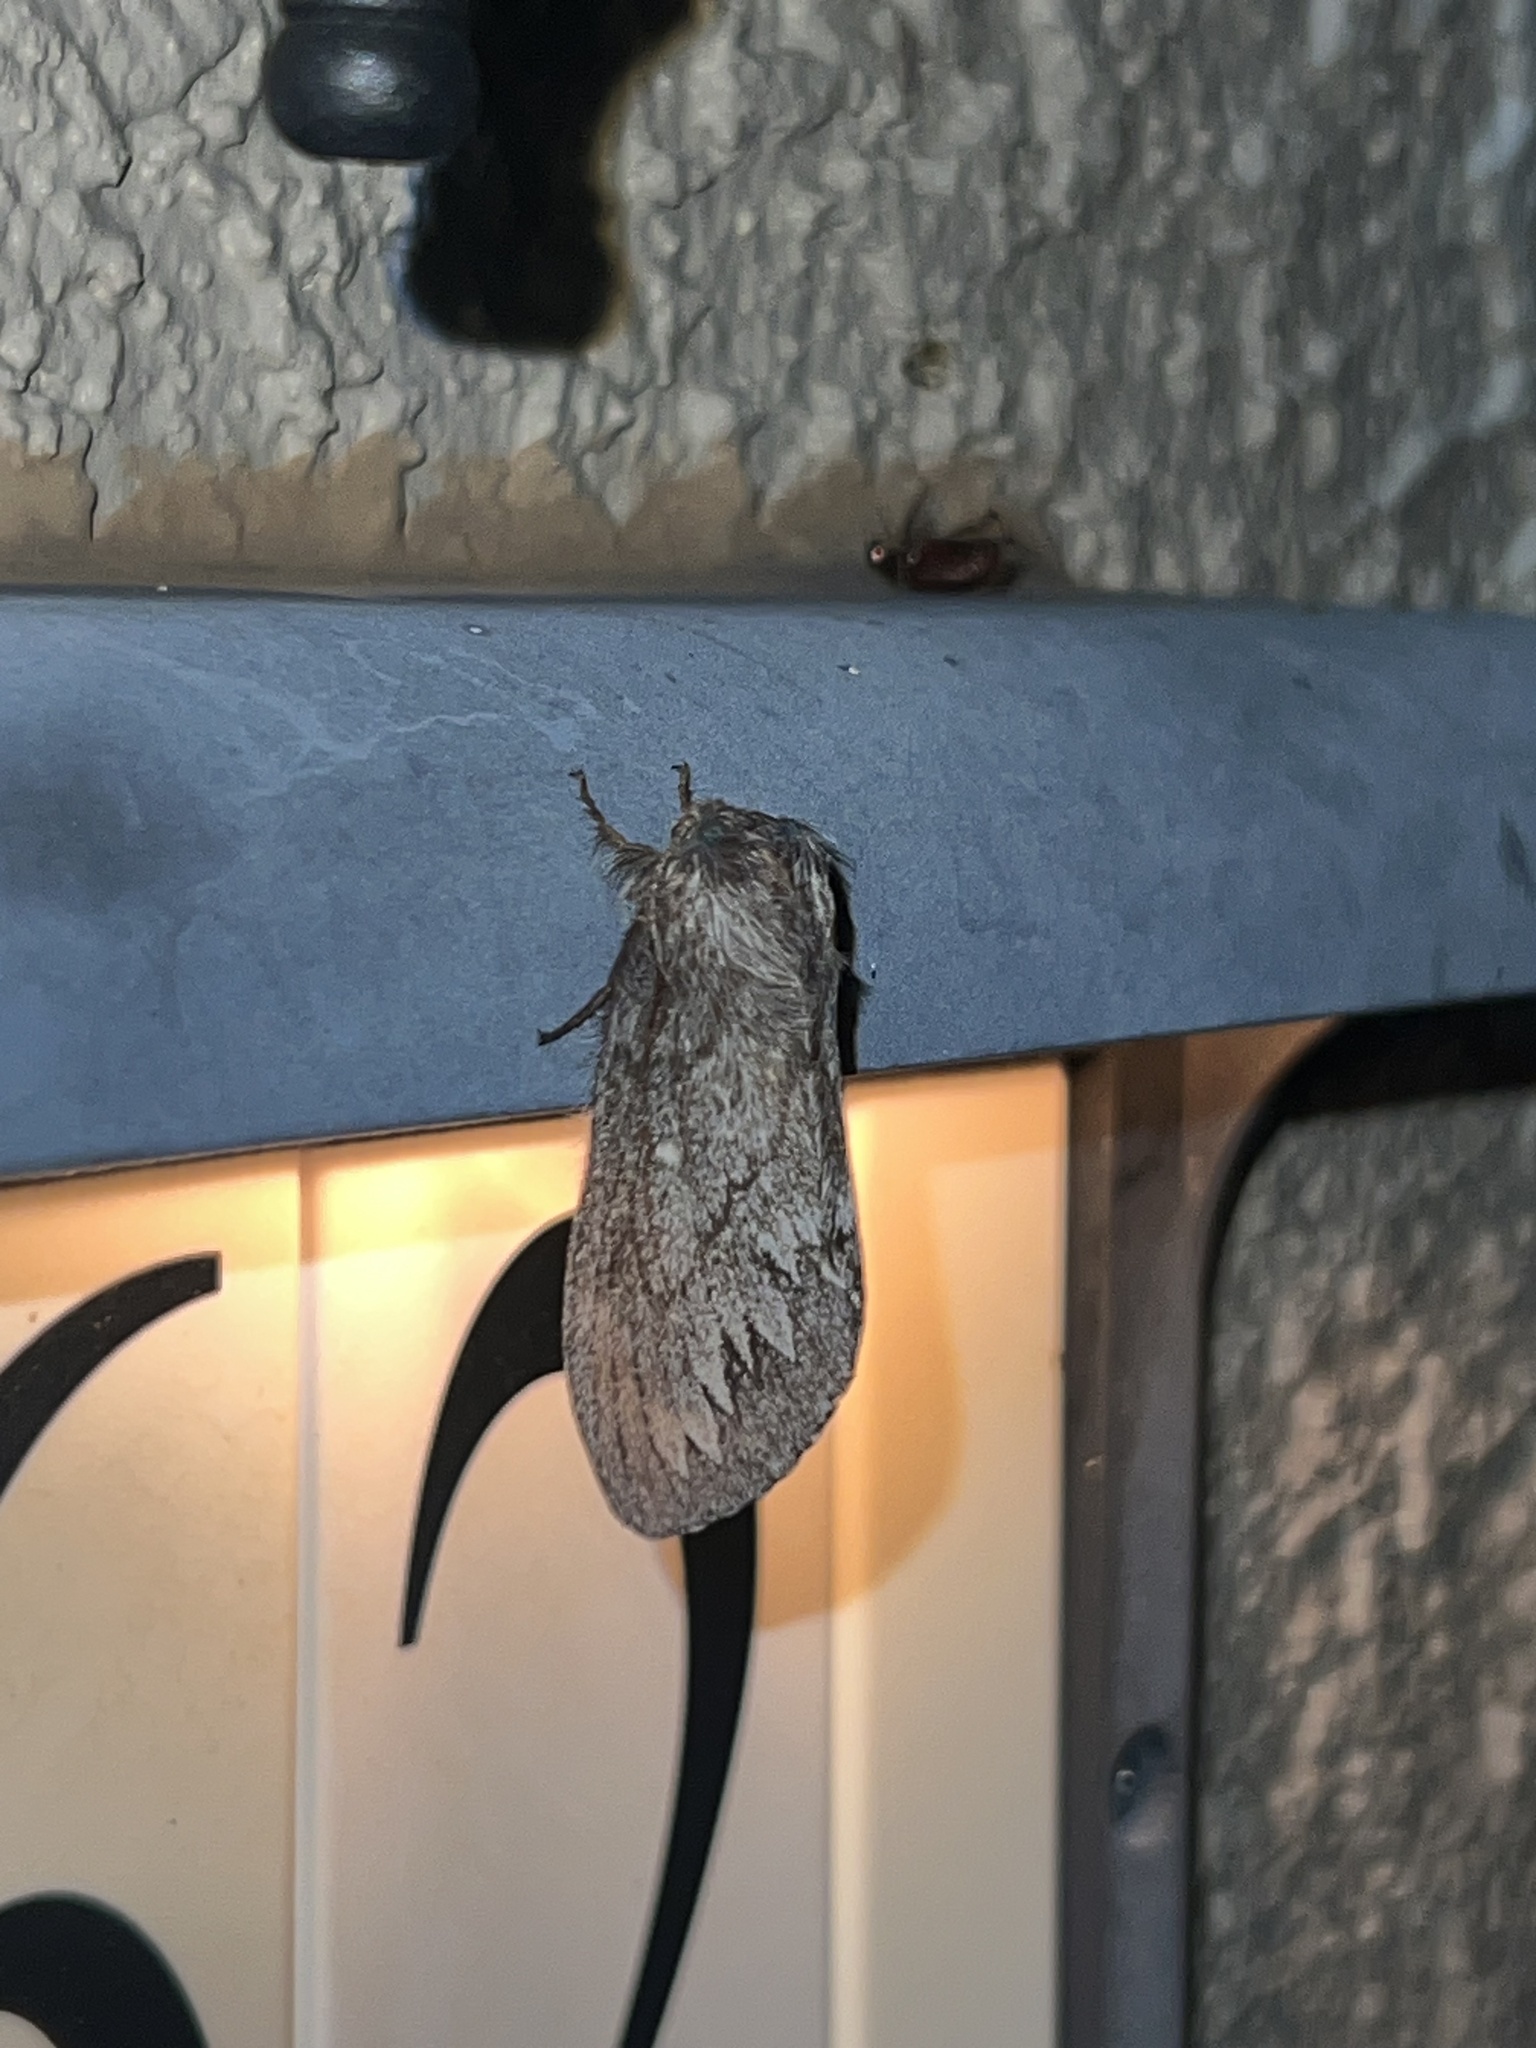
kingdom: Animalia
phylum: Arthropoda
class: Insecta
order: Lepidoptera
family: Lasiocampidae
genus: Gloveria
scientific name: Gloveria arizonensis
